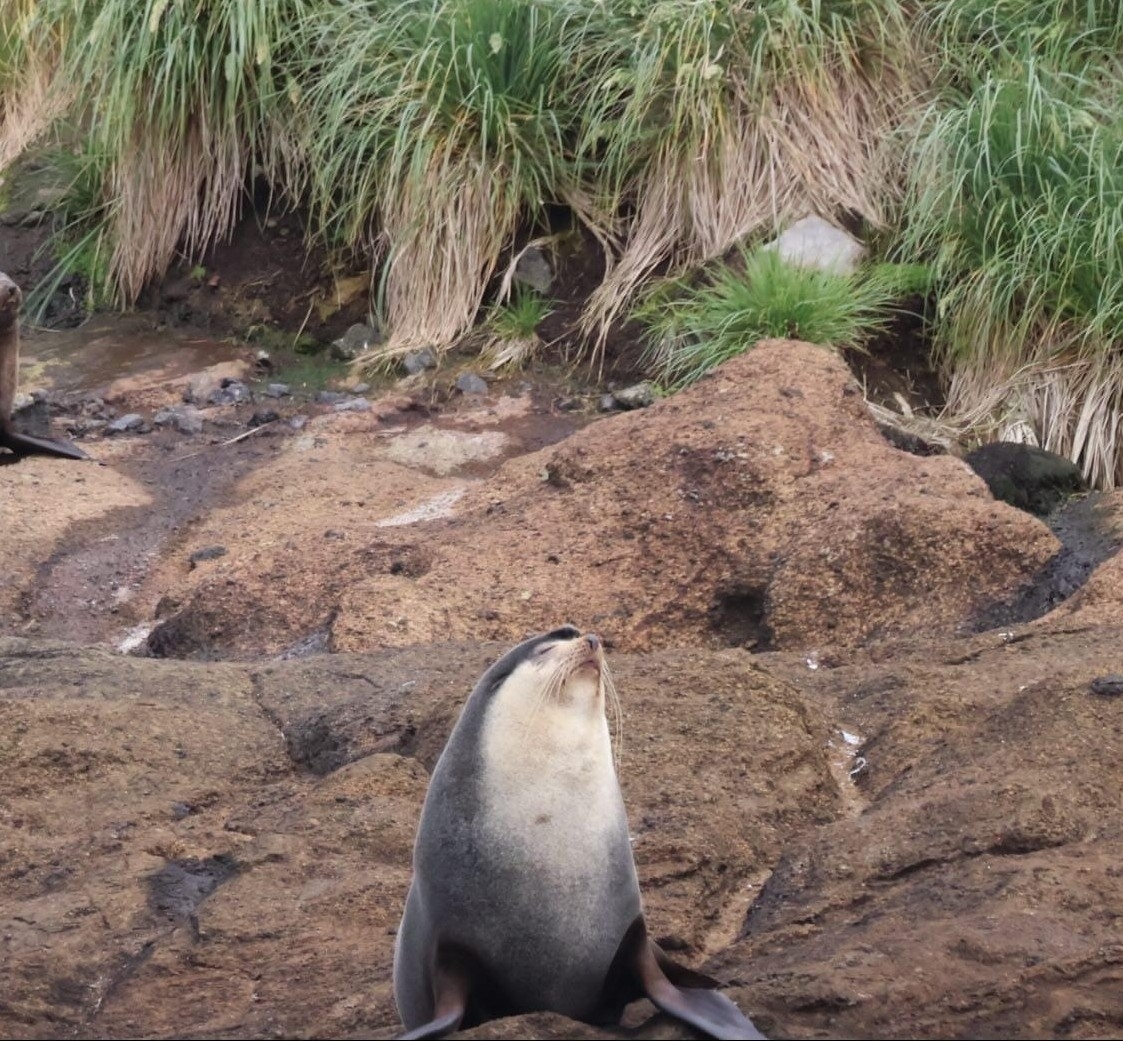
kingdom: Animalia
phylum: Chordata
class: Mammalia
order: Carnivora
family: Otariidae
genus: Arctocephalus
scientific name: Arctocephalus tropicalis
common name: Subantarctic fur seal
